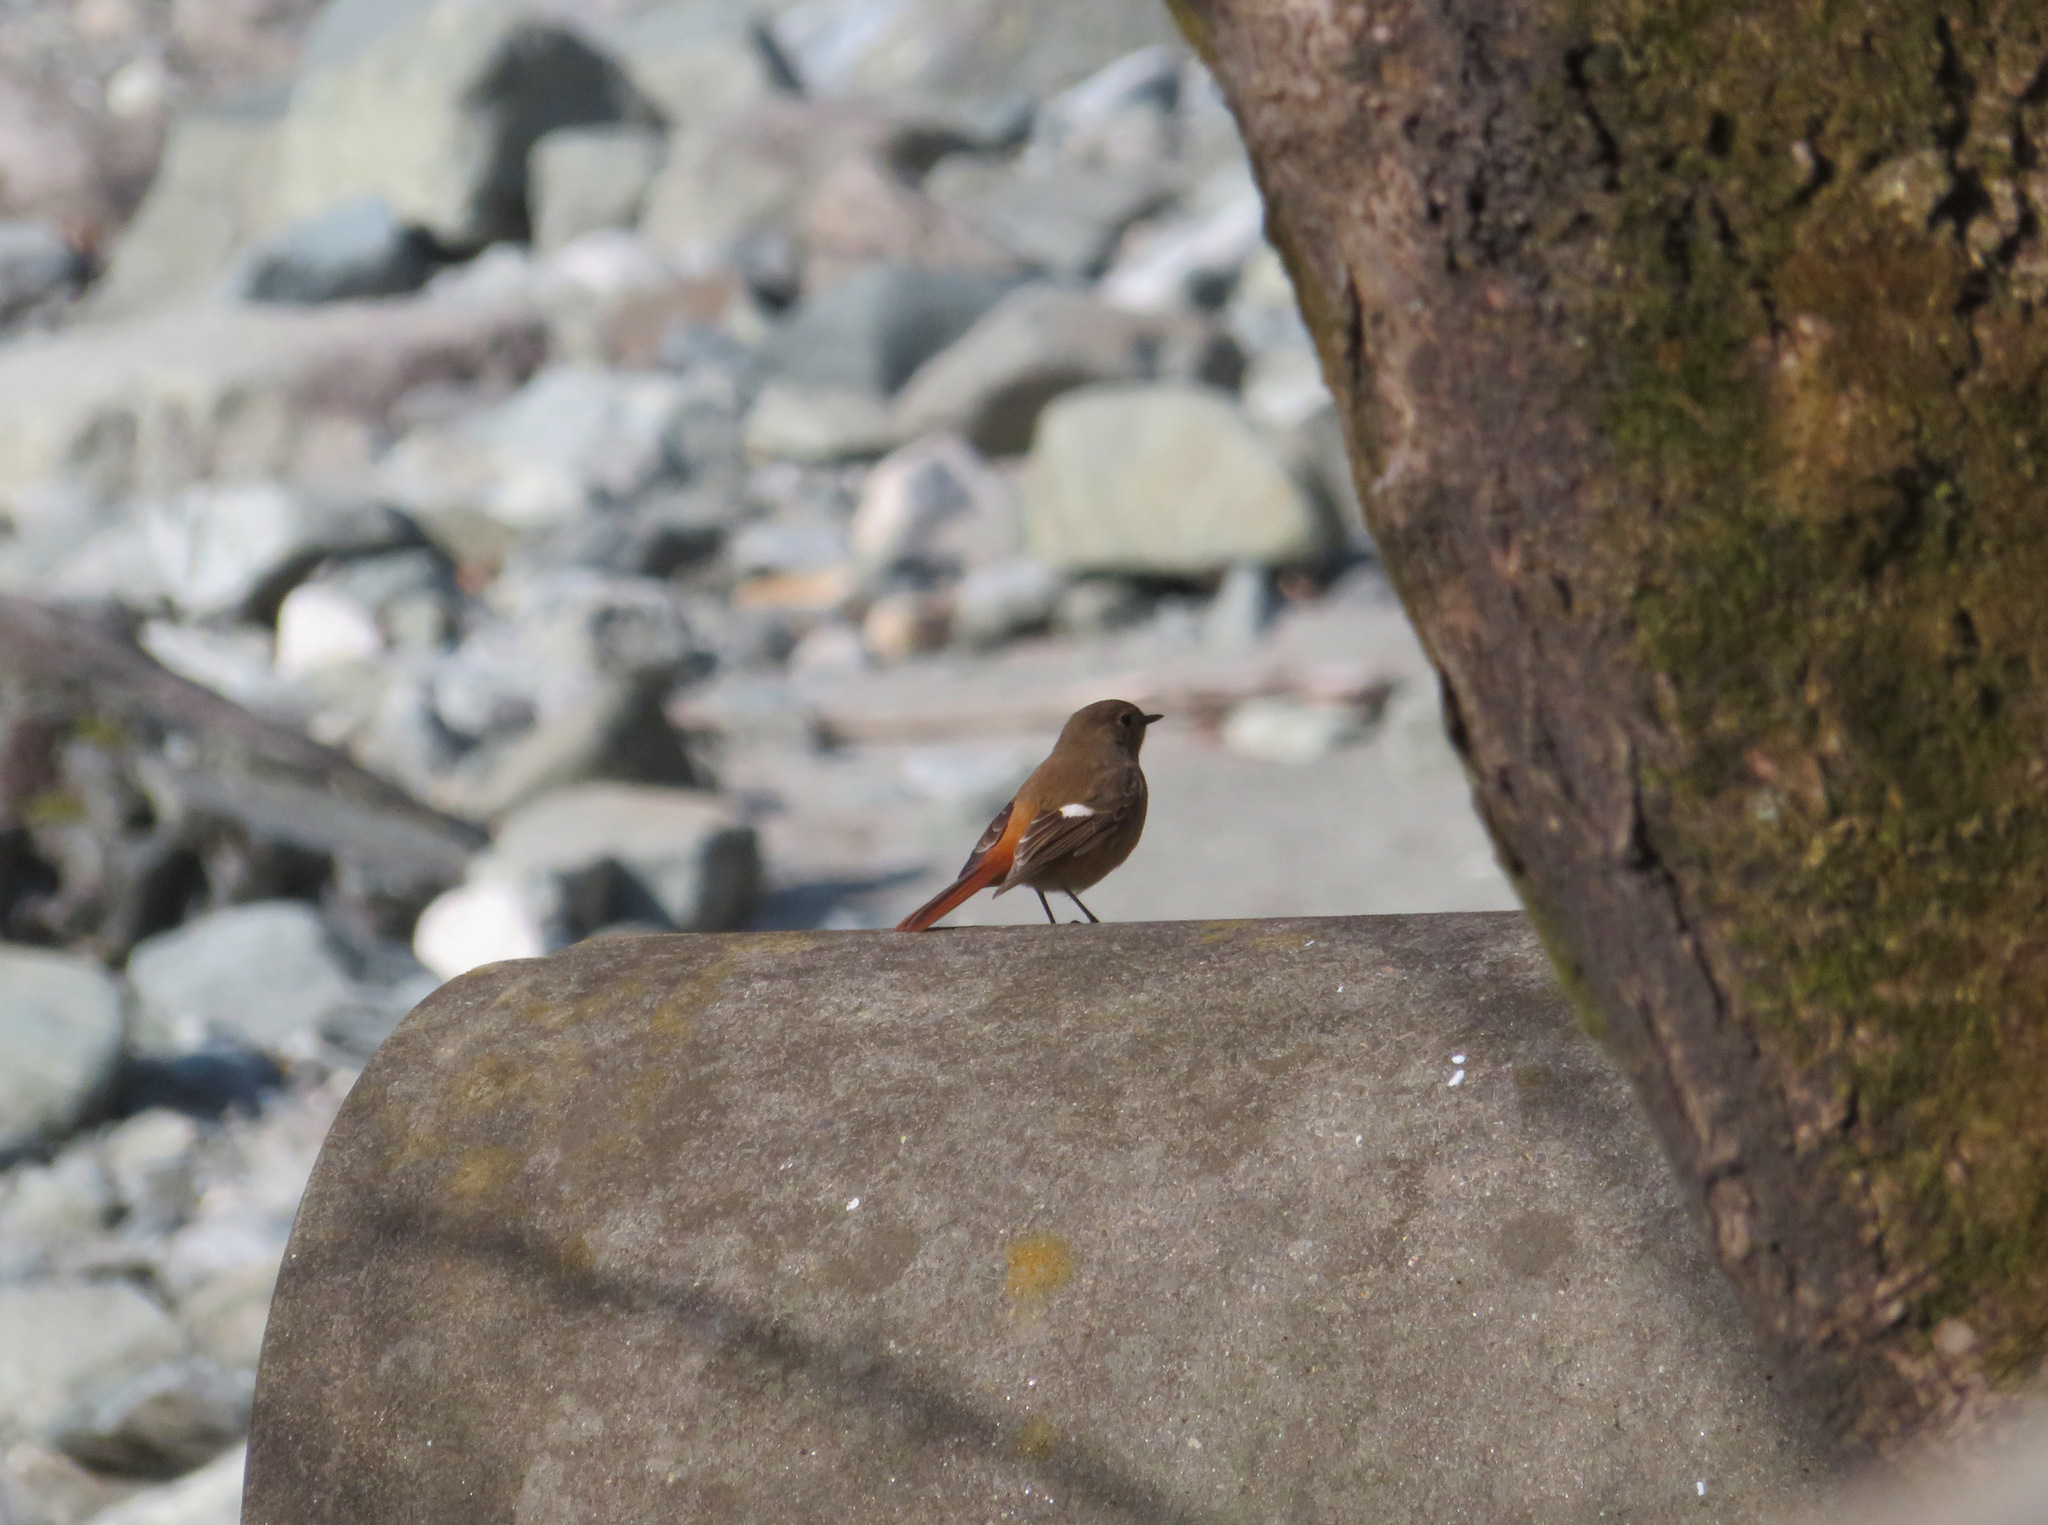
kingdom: Animalia
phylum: Chordata
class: Aves
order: Passeriformes
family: Muscicapidae
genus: Phoenicurus
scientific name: Phoenicurus auroreus
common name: Daurian redstart
